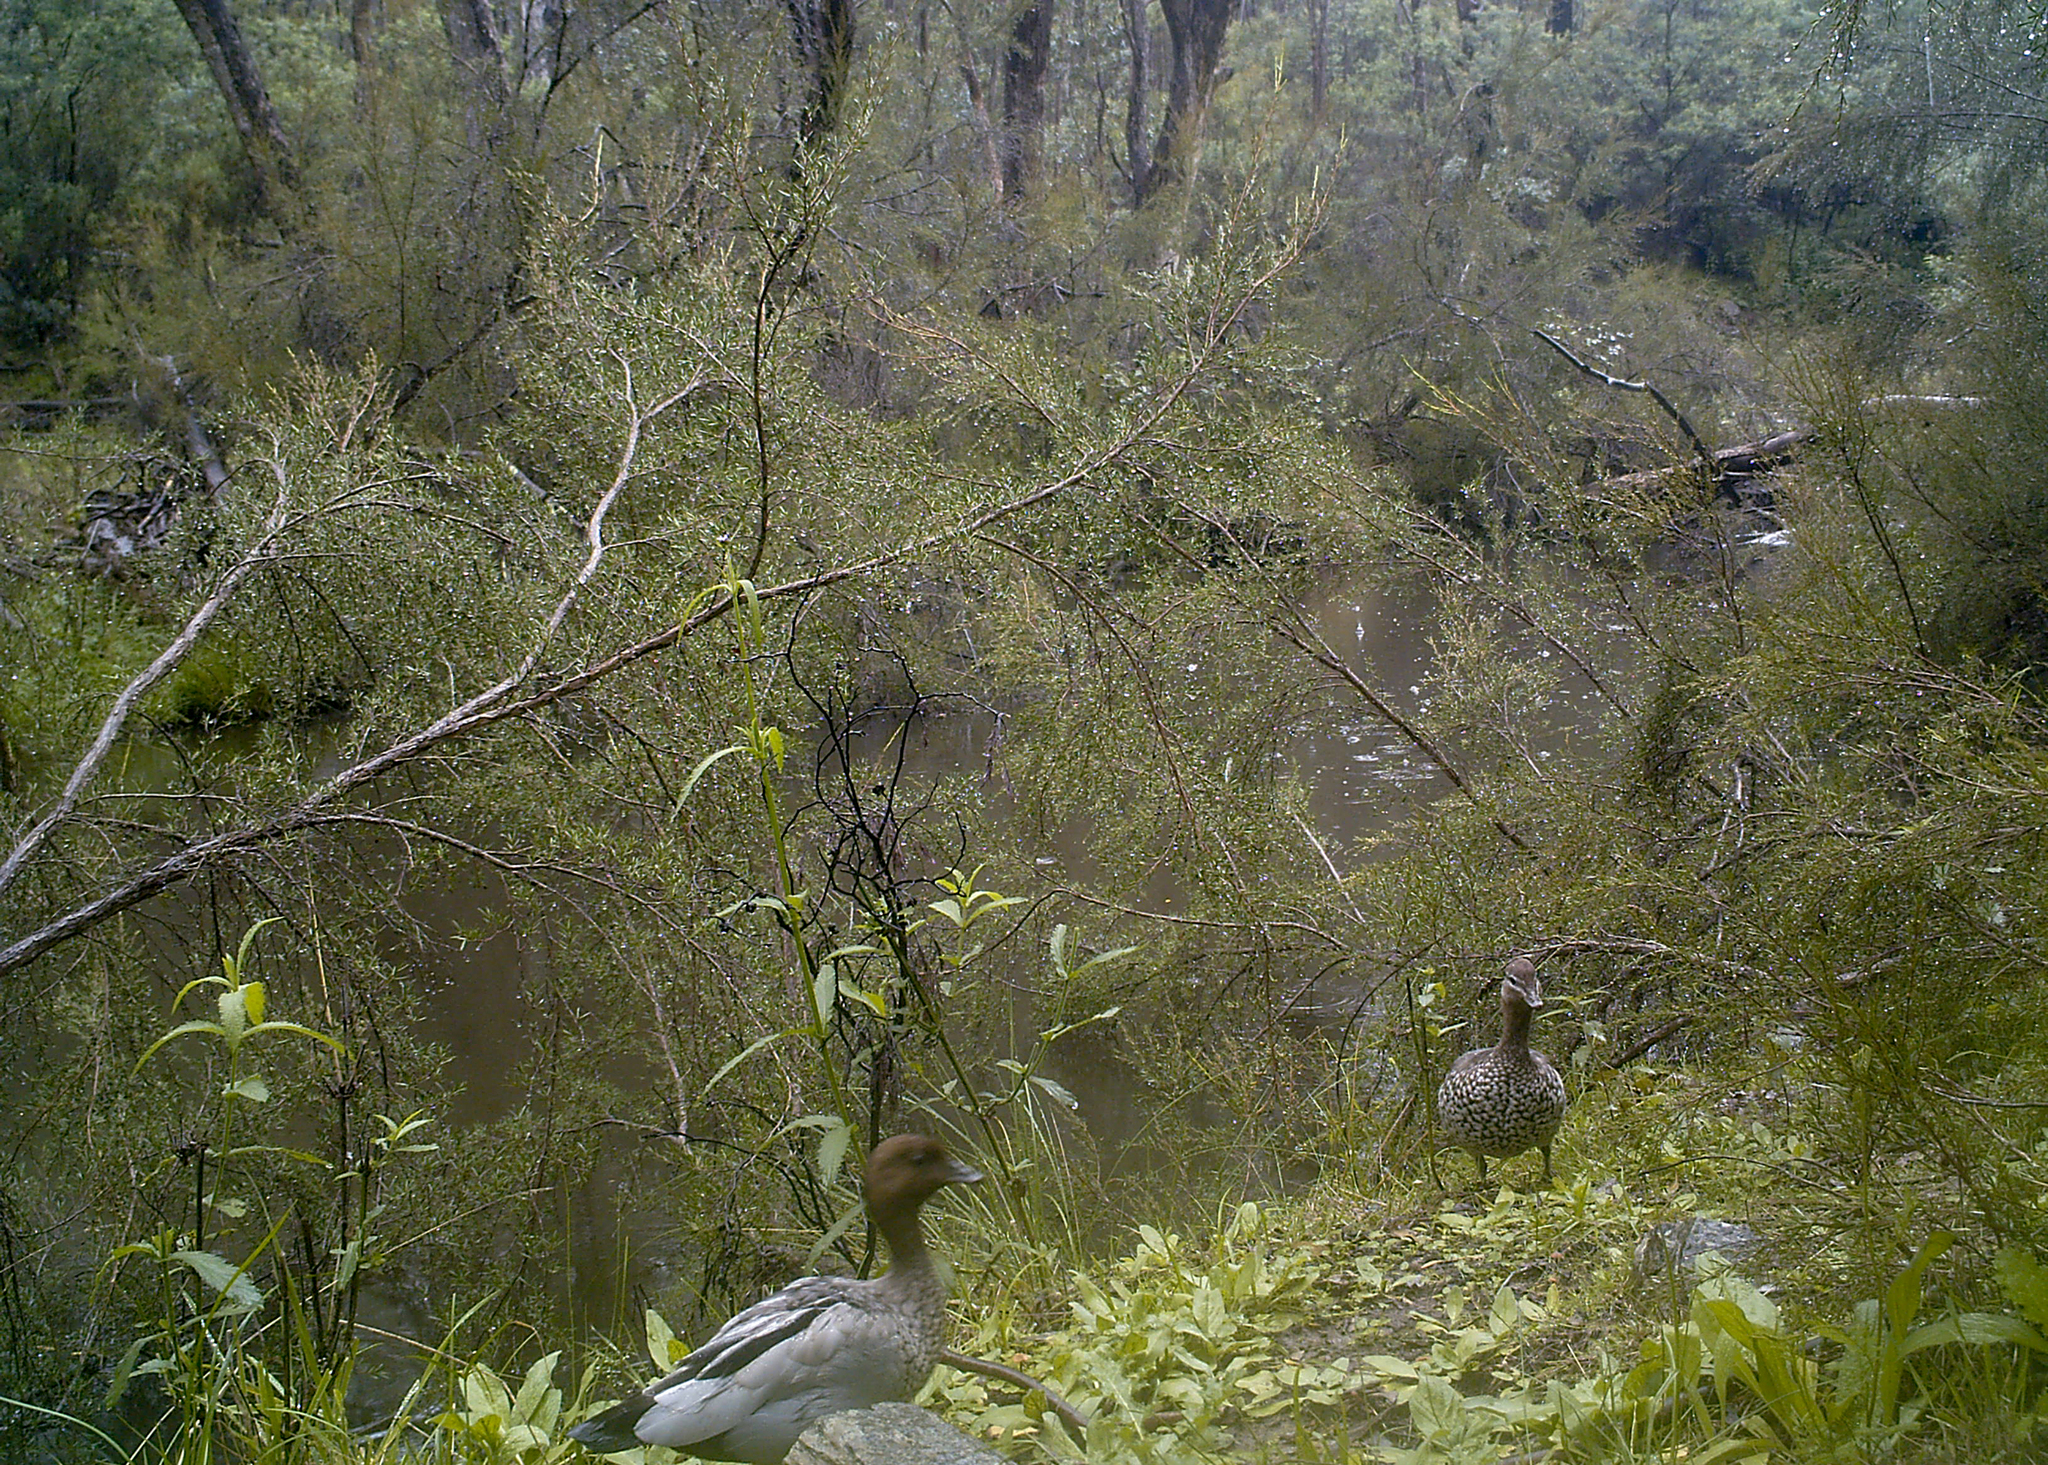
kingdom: Animalia
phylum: Chordata
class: Aves
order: Anseriformes
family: Anatidae
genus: Chenonetta
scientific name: Chenonetta jubata
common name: Maned duck
